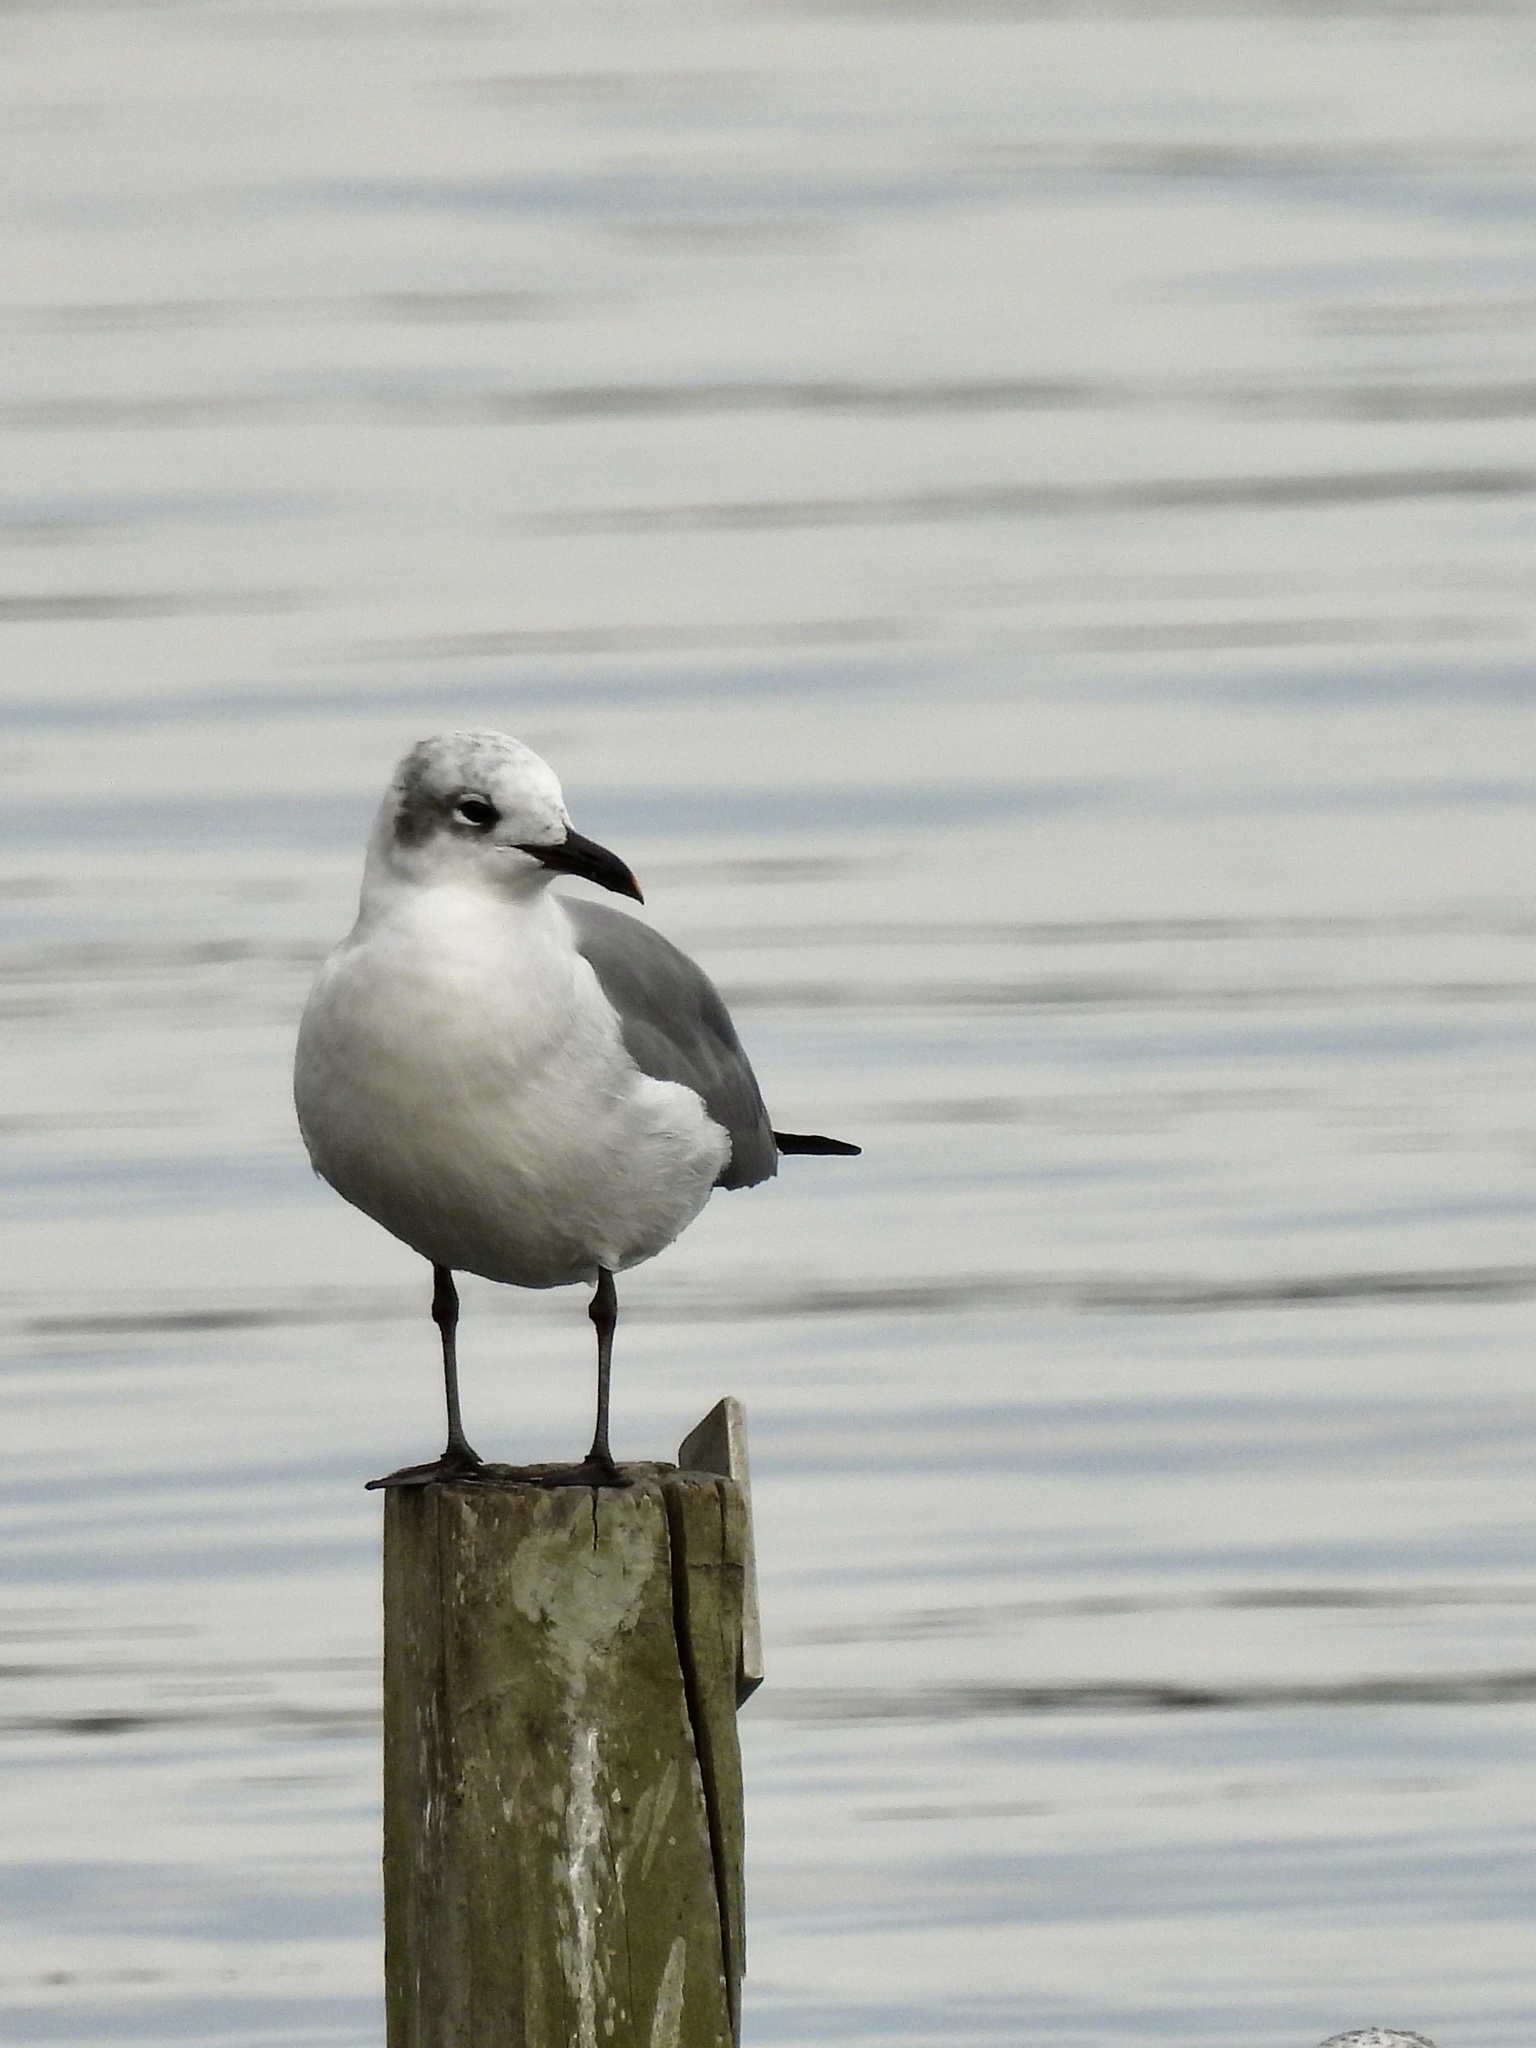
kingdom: Animalia
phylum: Chordata
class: Aves
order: Charadriiformes
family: Laridae
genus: Leucophaeus
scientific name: Leucophaeus atricilla
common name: Laughing gull
